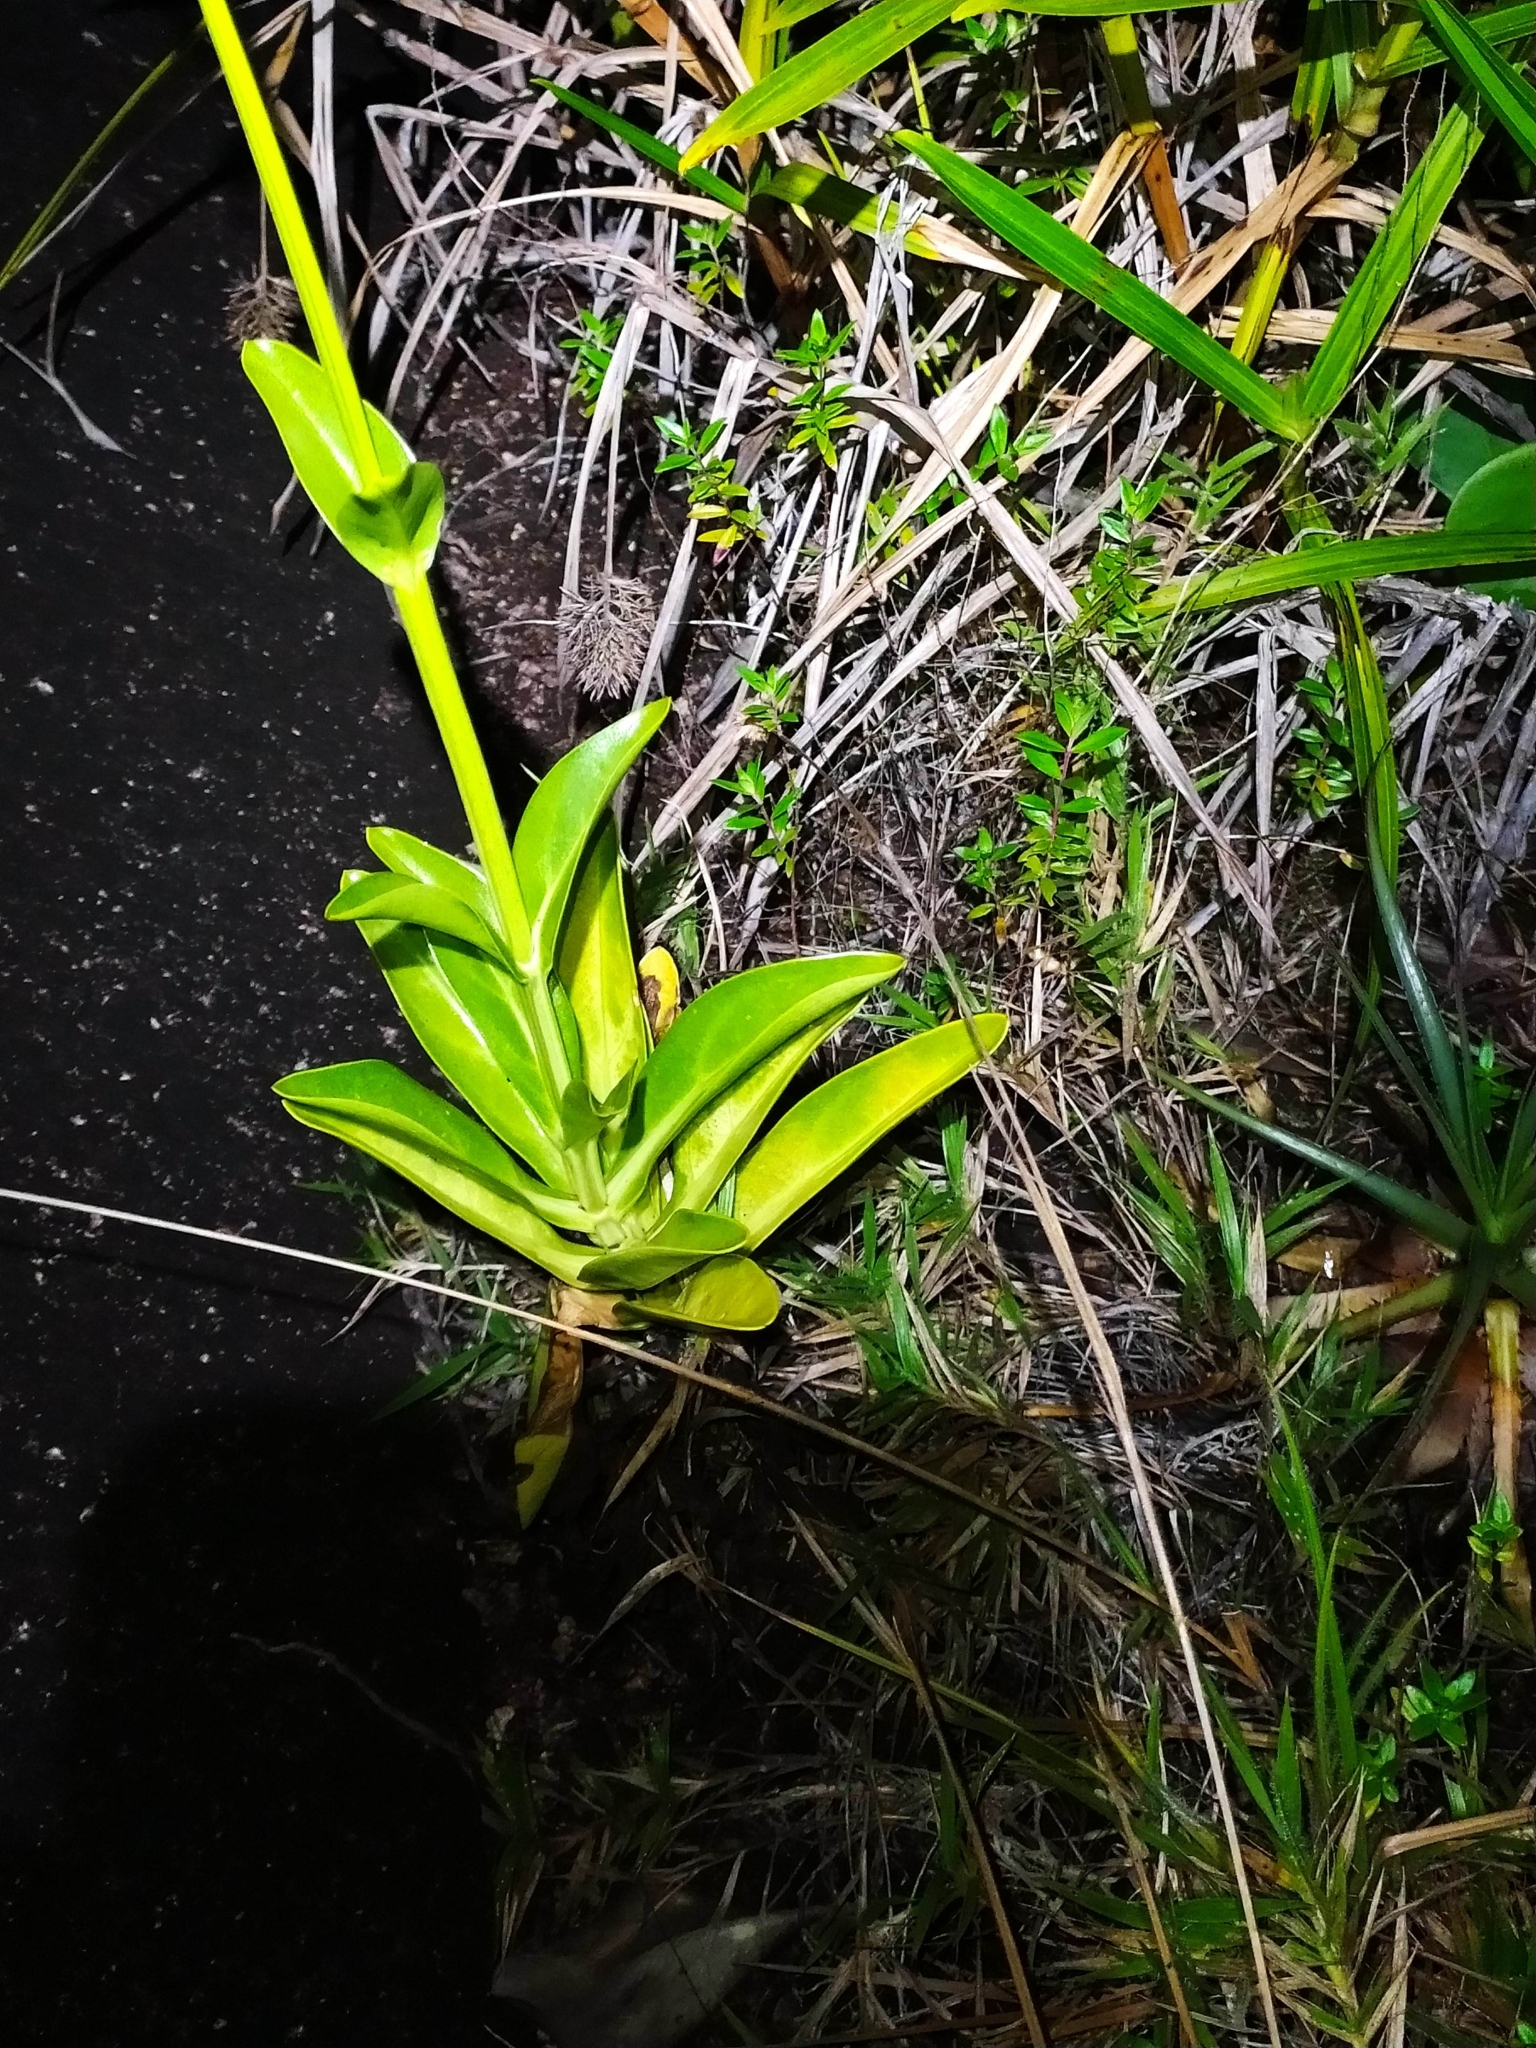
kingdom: Plantae
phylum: Tracheophyta
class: Magnoliopsida
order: Gentianales
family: Gentianaceae
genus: Chelonanthus
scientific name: Chelonanthus hamatus
